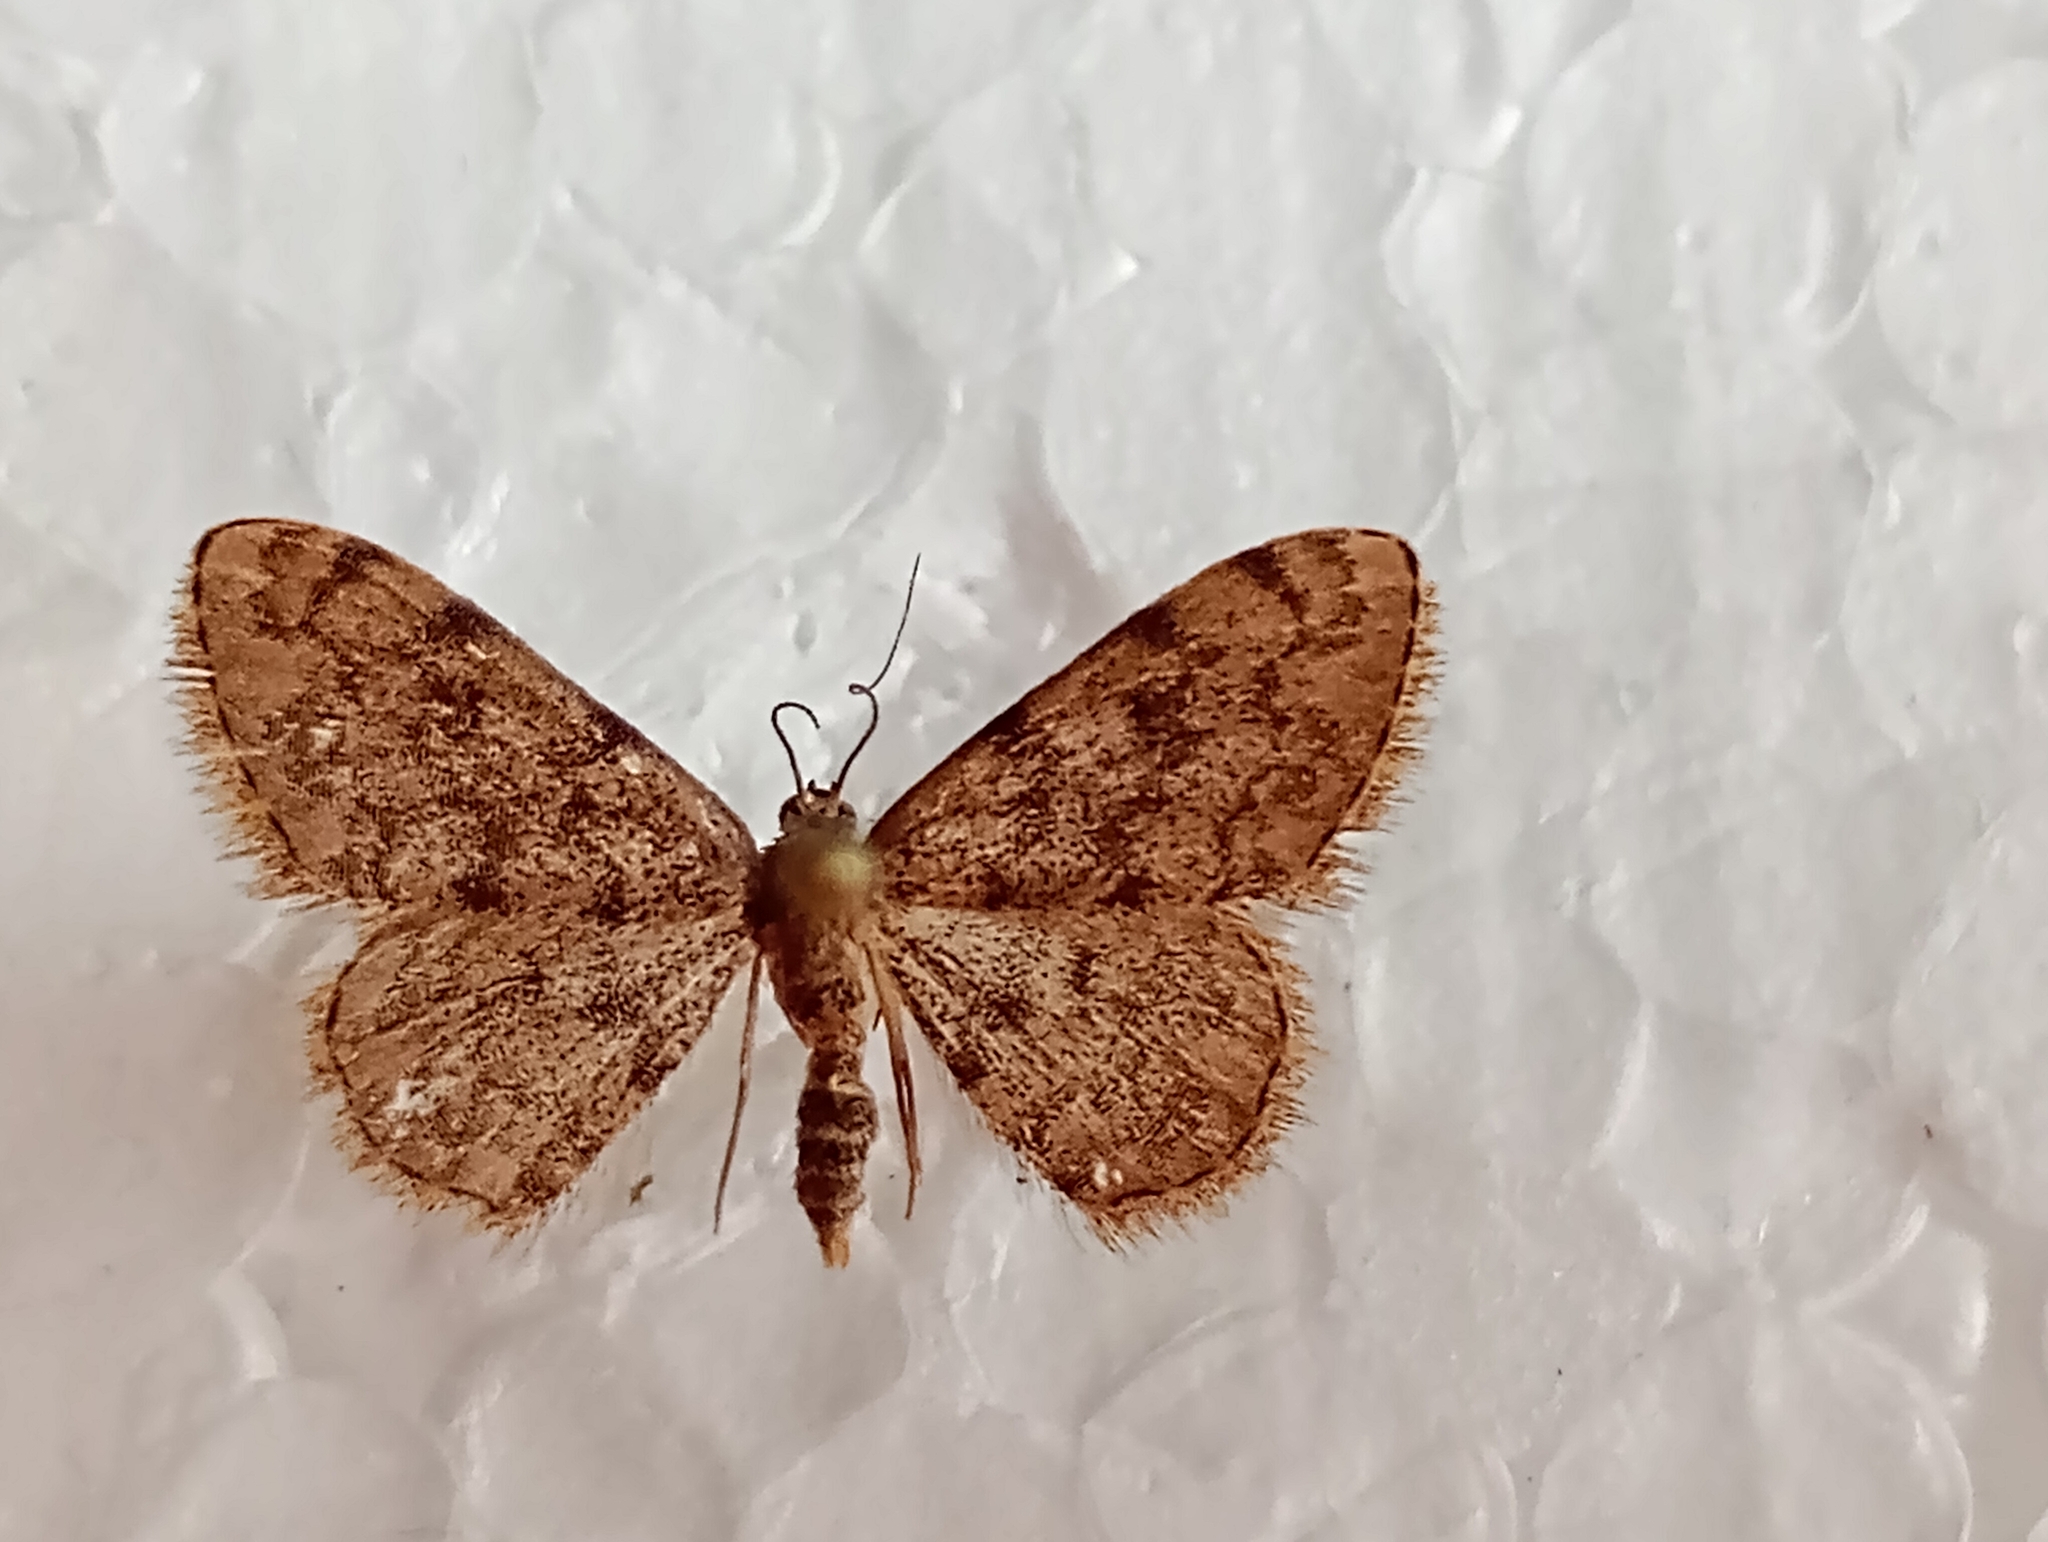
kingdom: Animalia
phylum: Arthropoda
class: Insecta
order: Lepidoptera
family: Geometridae
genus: Glossotrophia
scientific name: Glossotrophia asellaria
